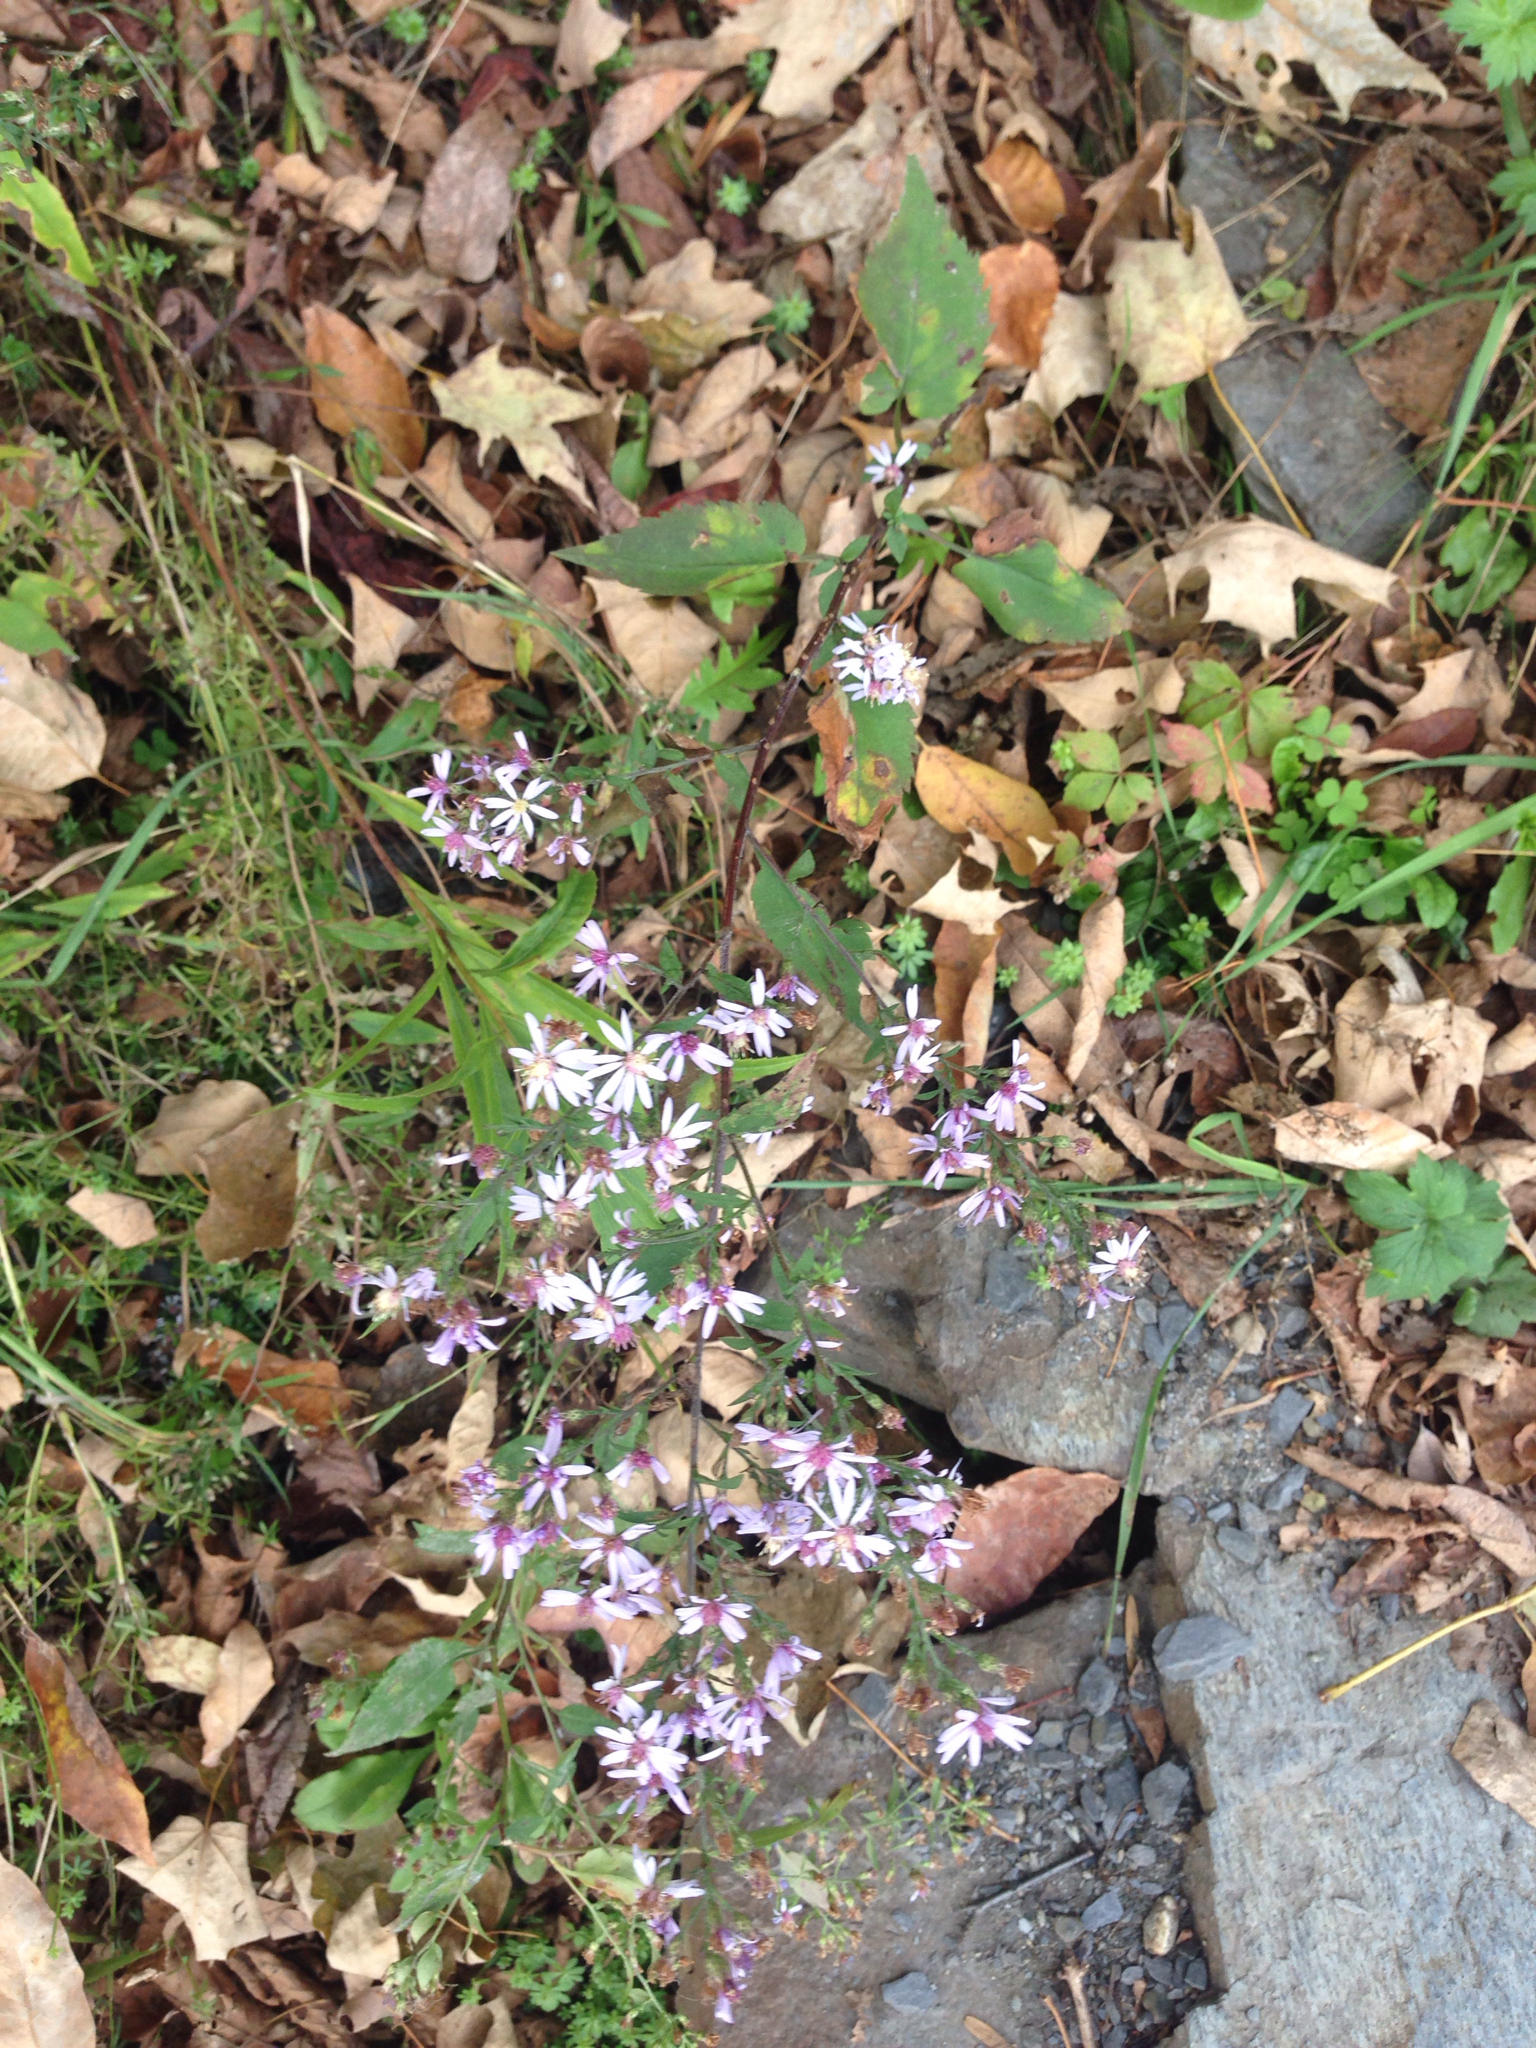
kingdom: Plantae
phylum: Tracheophyta
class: Magnoliopsida
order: Asterales
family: Asteraceae
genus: Symphyotrichum
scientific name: Symphyotrichum cordifolium
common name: Beeweed
